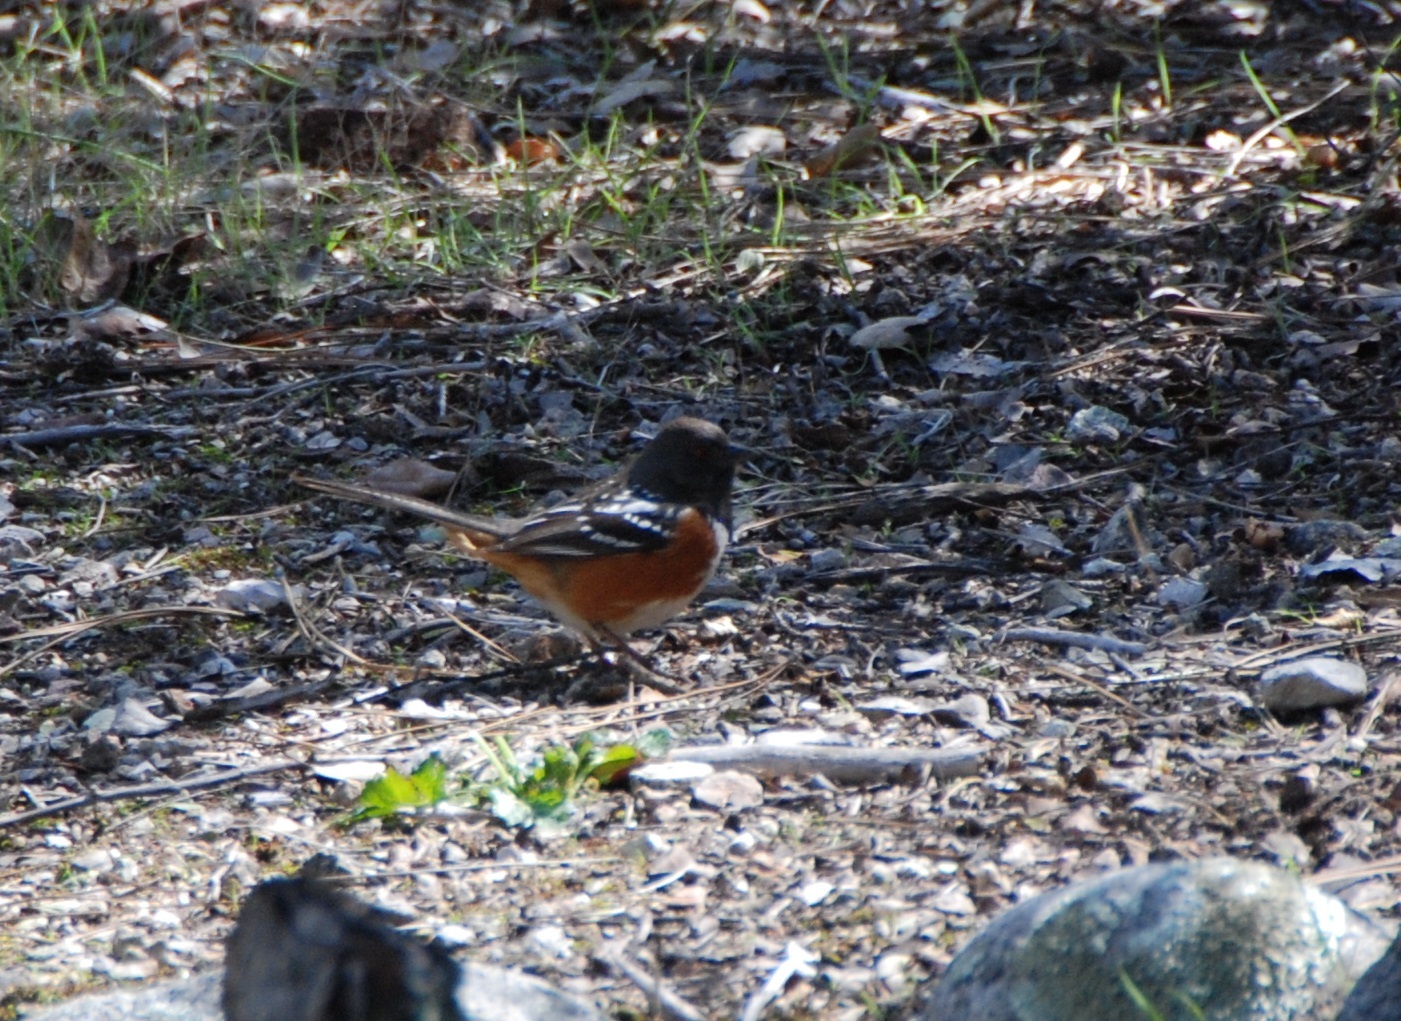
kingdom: Animalia
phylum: Chordata
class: Aves
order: Passeriformes
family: Passerellidae
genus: Pipilo
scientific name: Pipilo maculatus
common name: Spotted towhee
